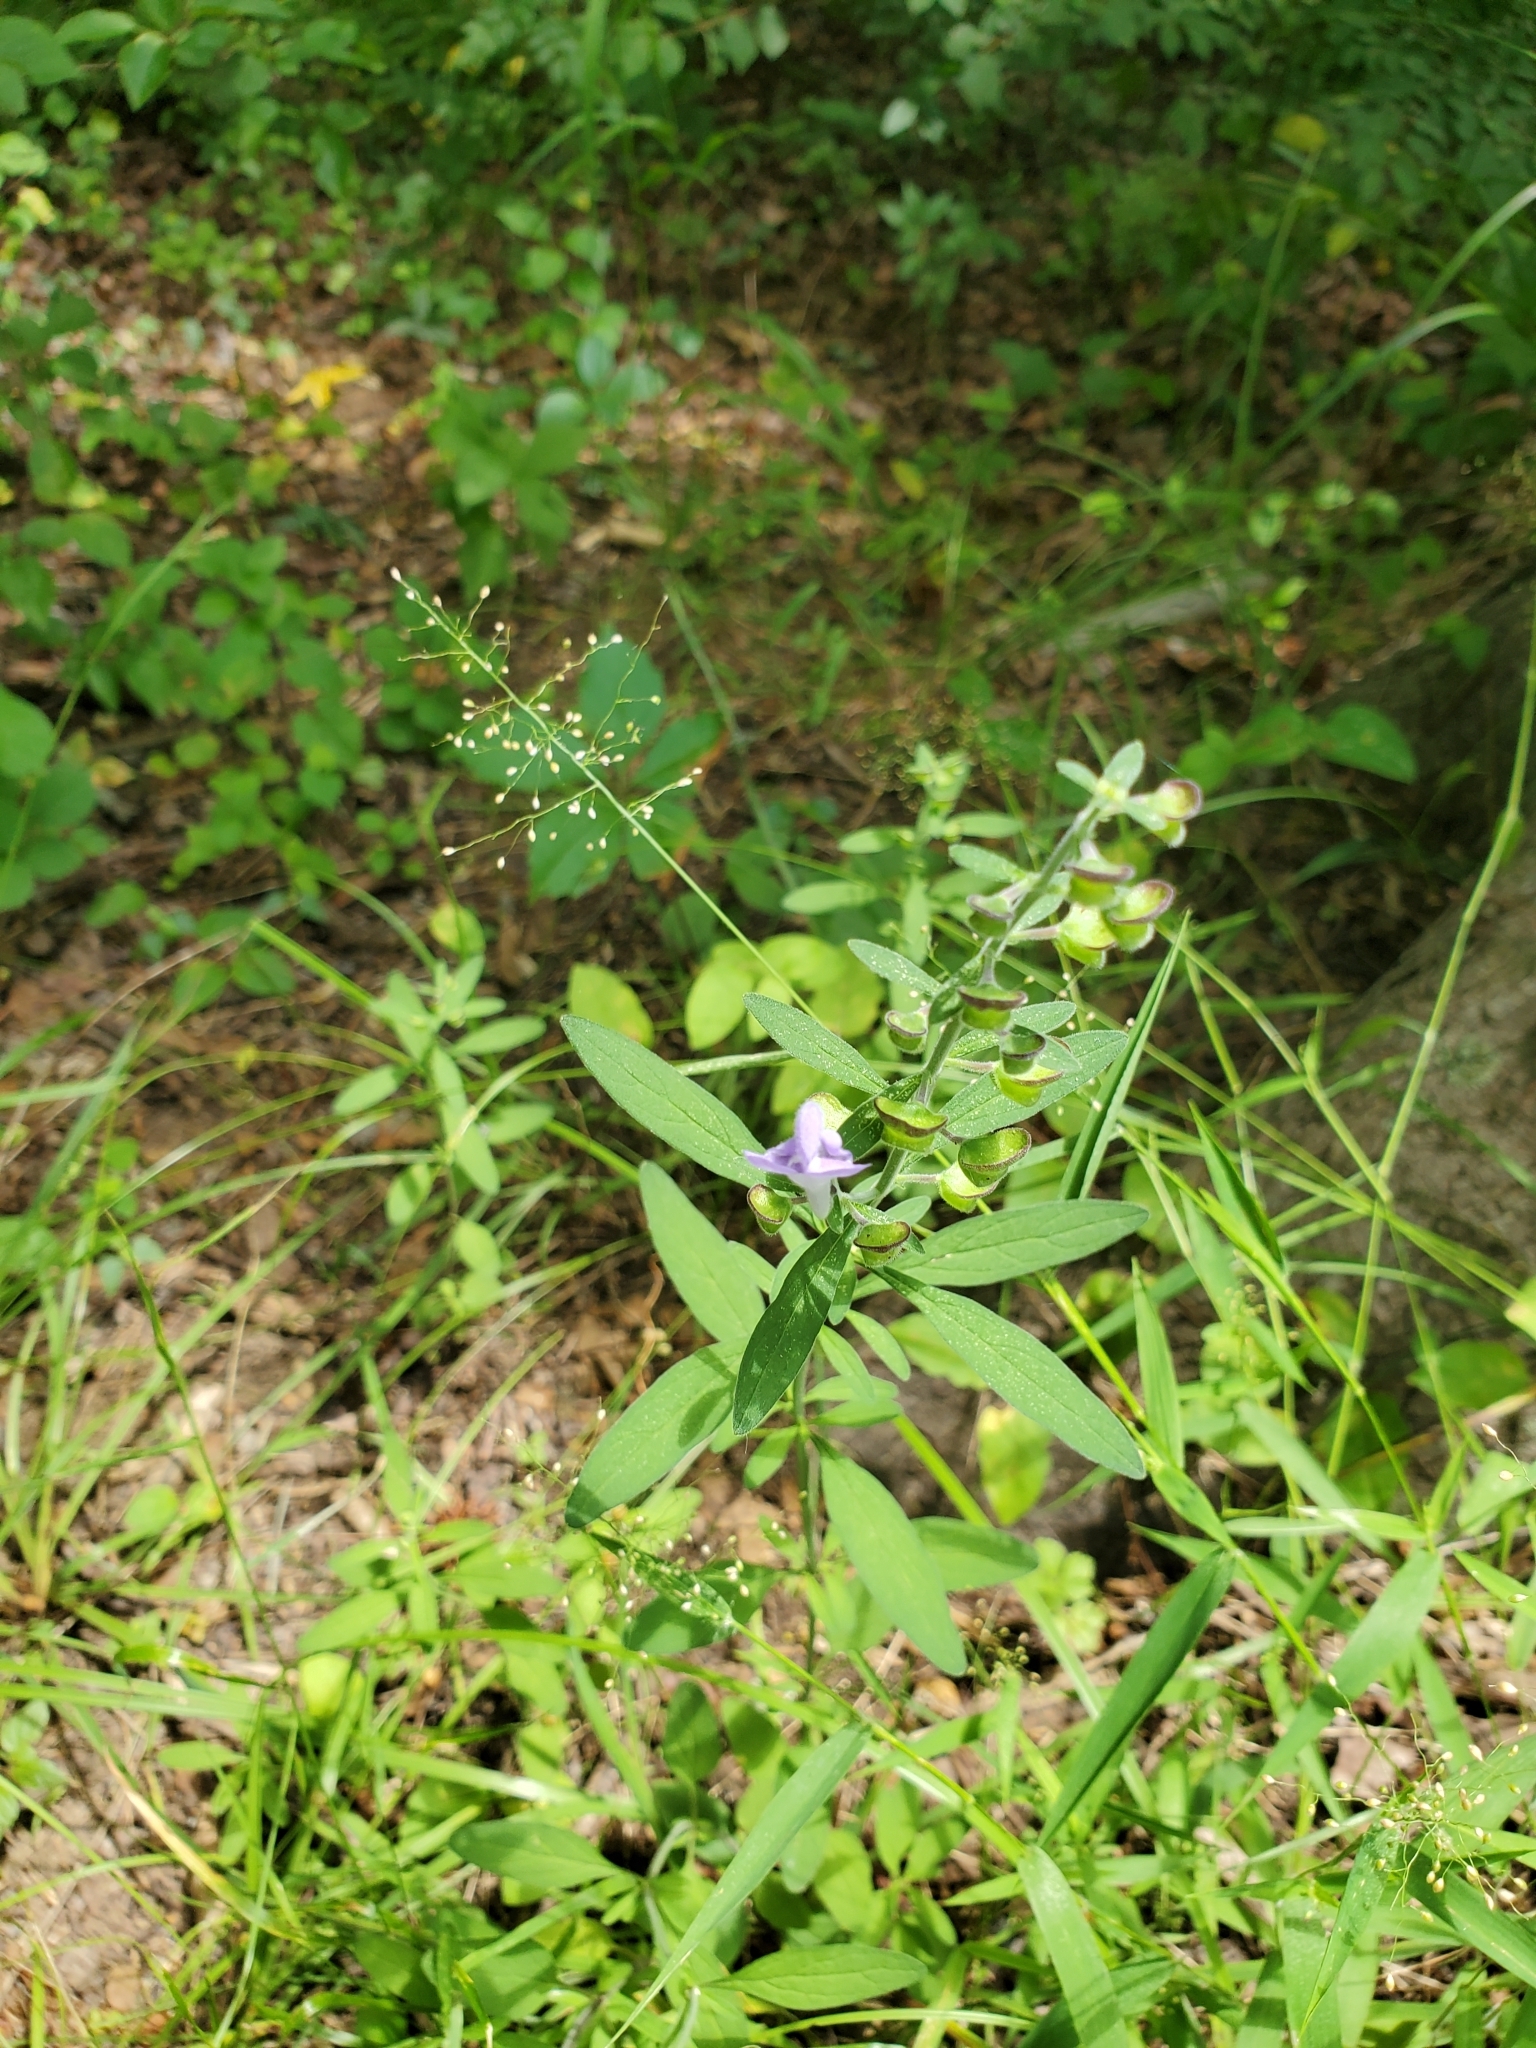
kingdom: Plantae
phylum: Tracheophyta
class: Magnoliopsida
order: Lamiales
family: Lamiaceae
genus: Scutellaria
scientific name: Scutellaria integrifolia
